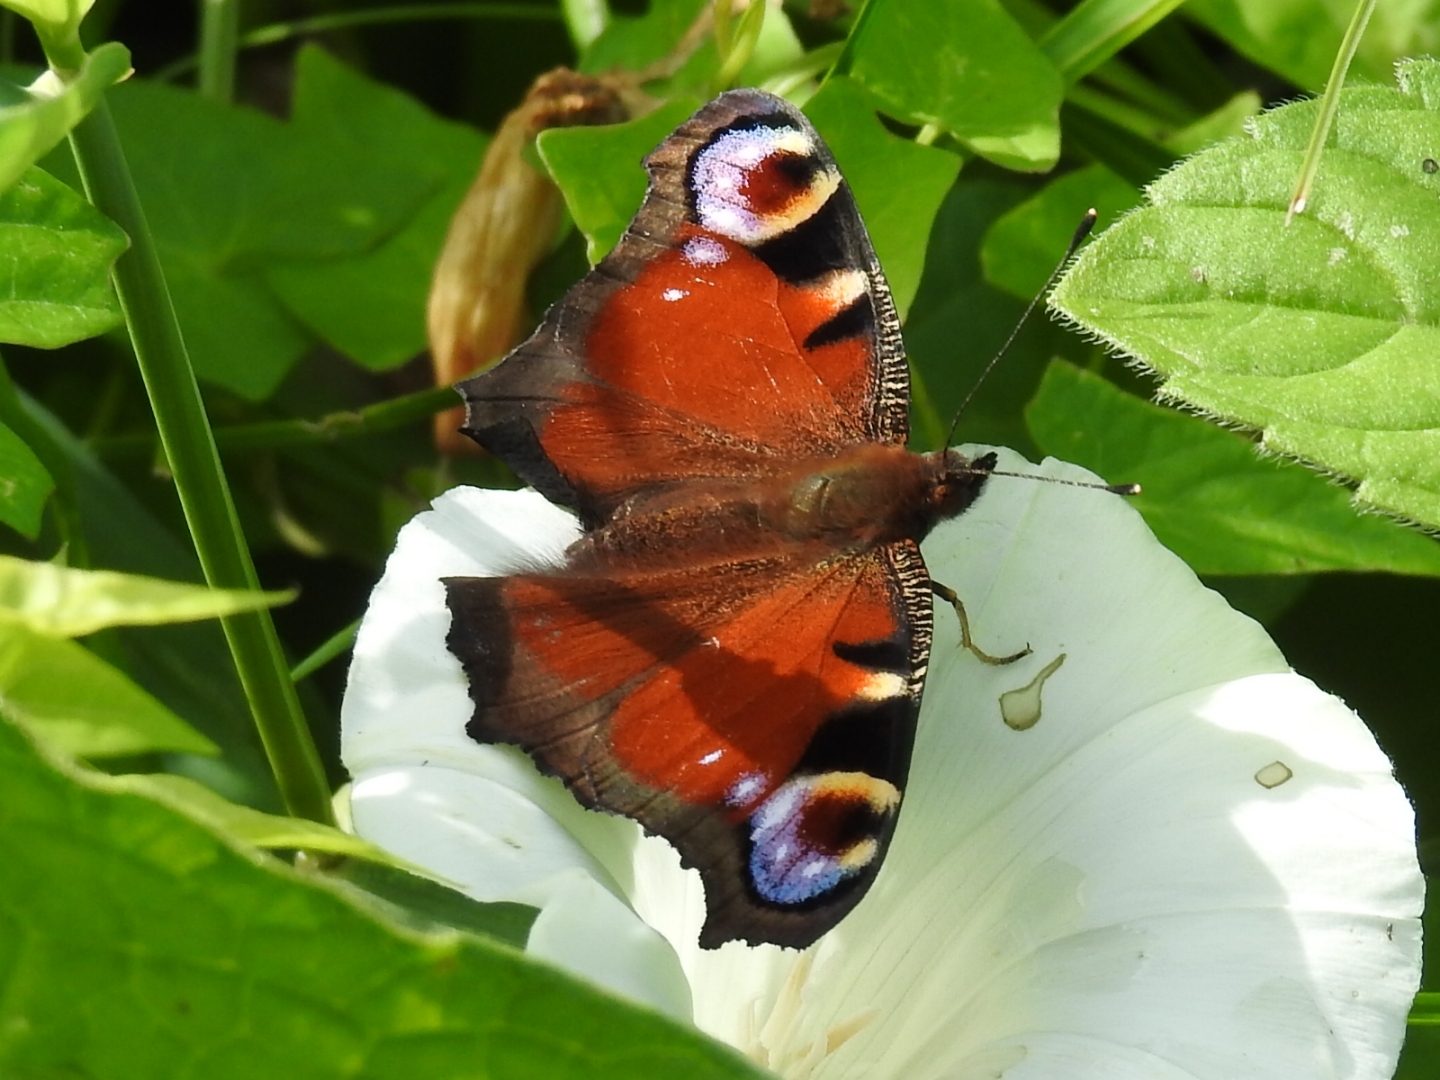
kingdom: Animalia
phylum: Arthropoda
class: Insecta
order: Lepidoptera
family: Nymphalidae
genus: Aglais
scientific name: Aglais io
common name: Peacock
